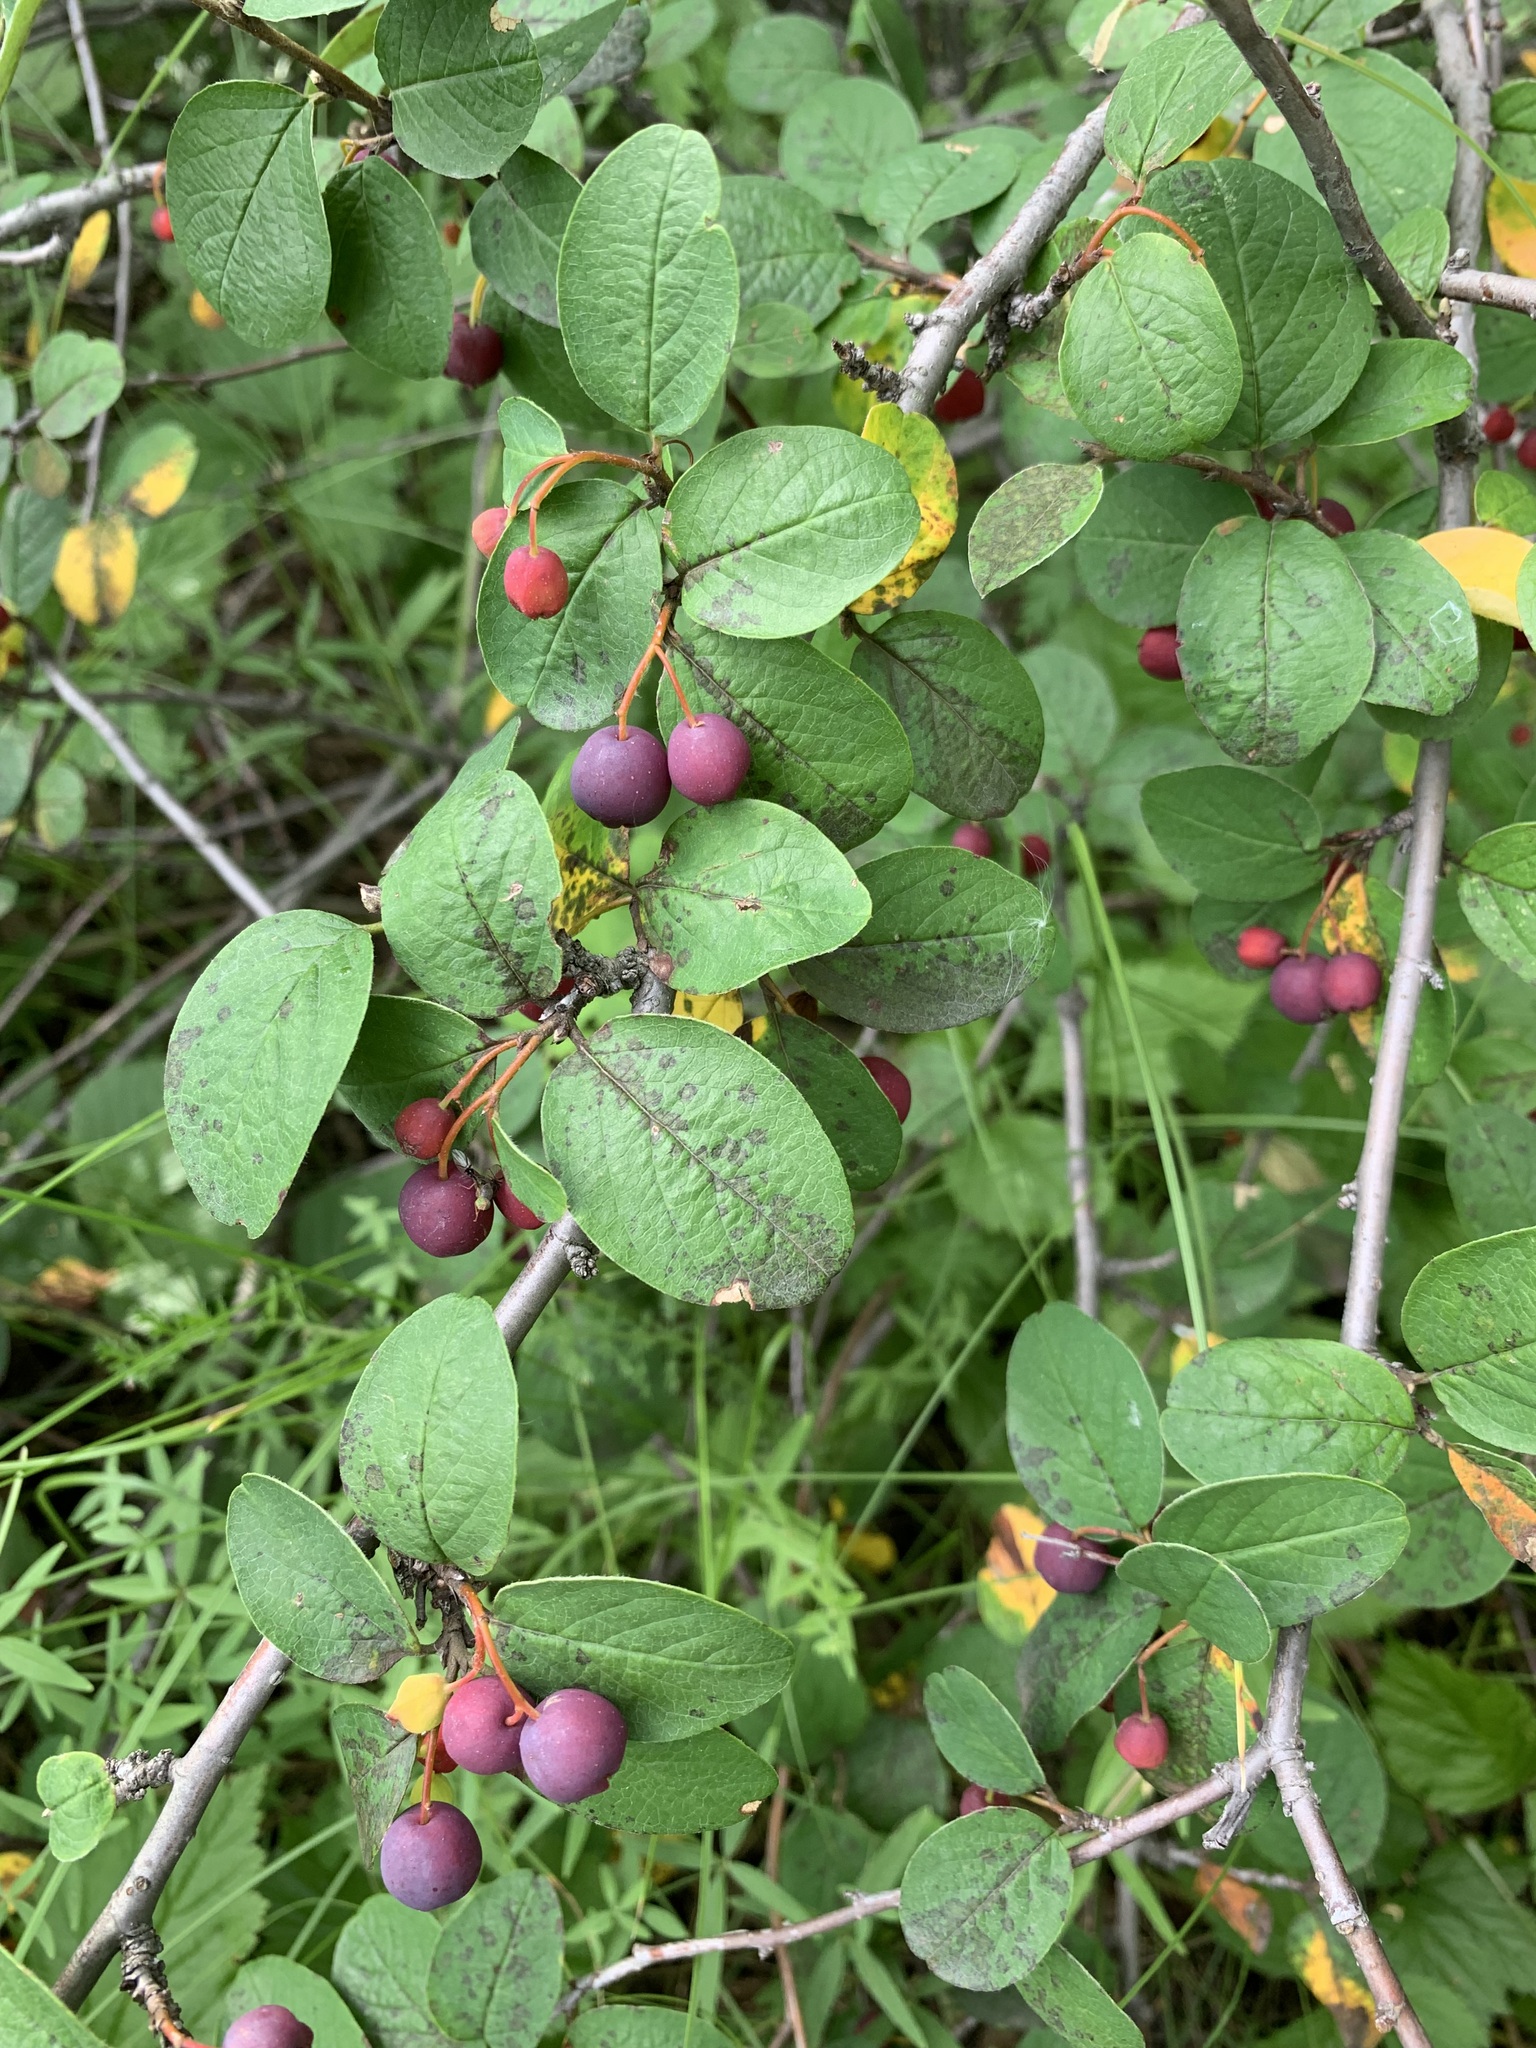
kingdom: Plantae
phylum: Tracheophyta
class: Magnoliopsida
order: Rosales
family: Rosaceae
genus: Cotoneaster
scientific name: Cotoneaster melanocarpus
